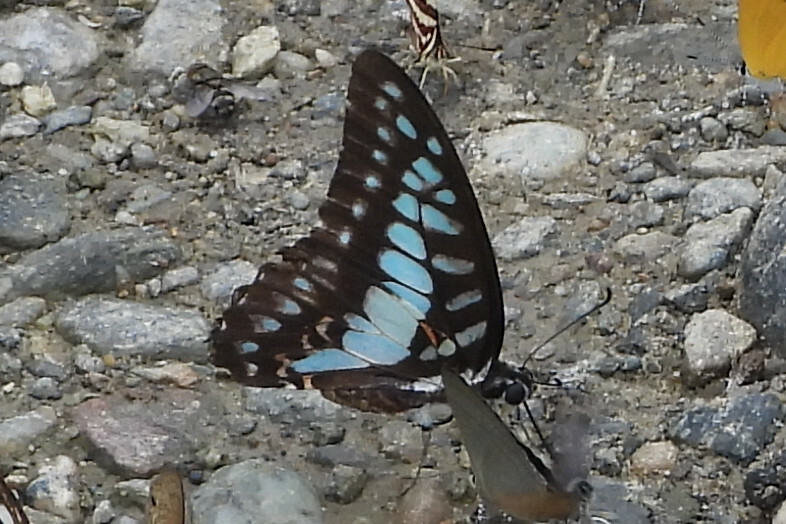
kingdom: Animalia
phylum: Arthropoda
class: Insecta
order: Lepidoptera
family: Papilionidae
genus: Graphium
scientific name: Graphium eurypylus
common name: Great jay
